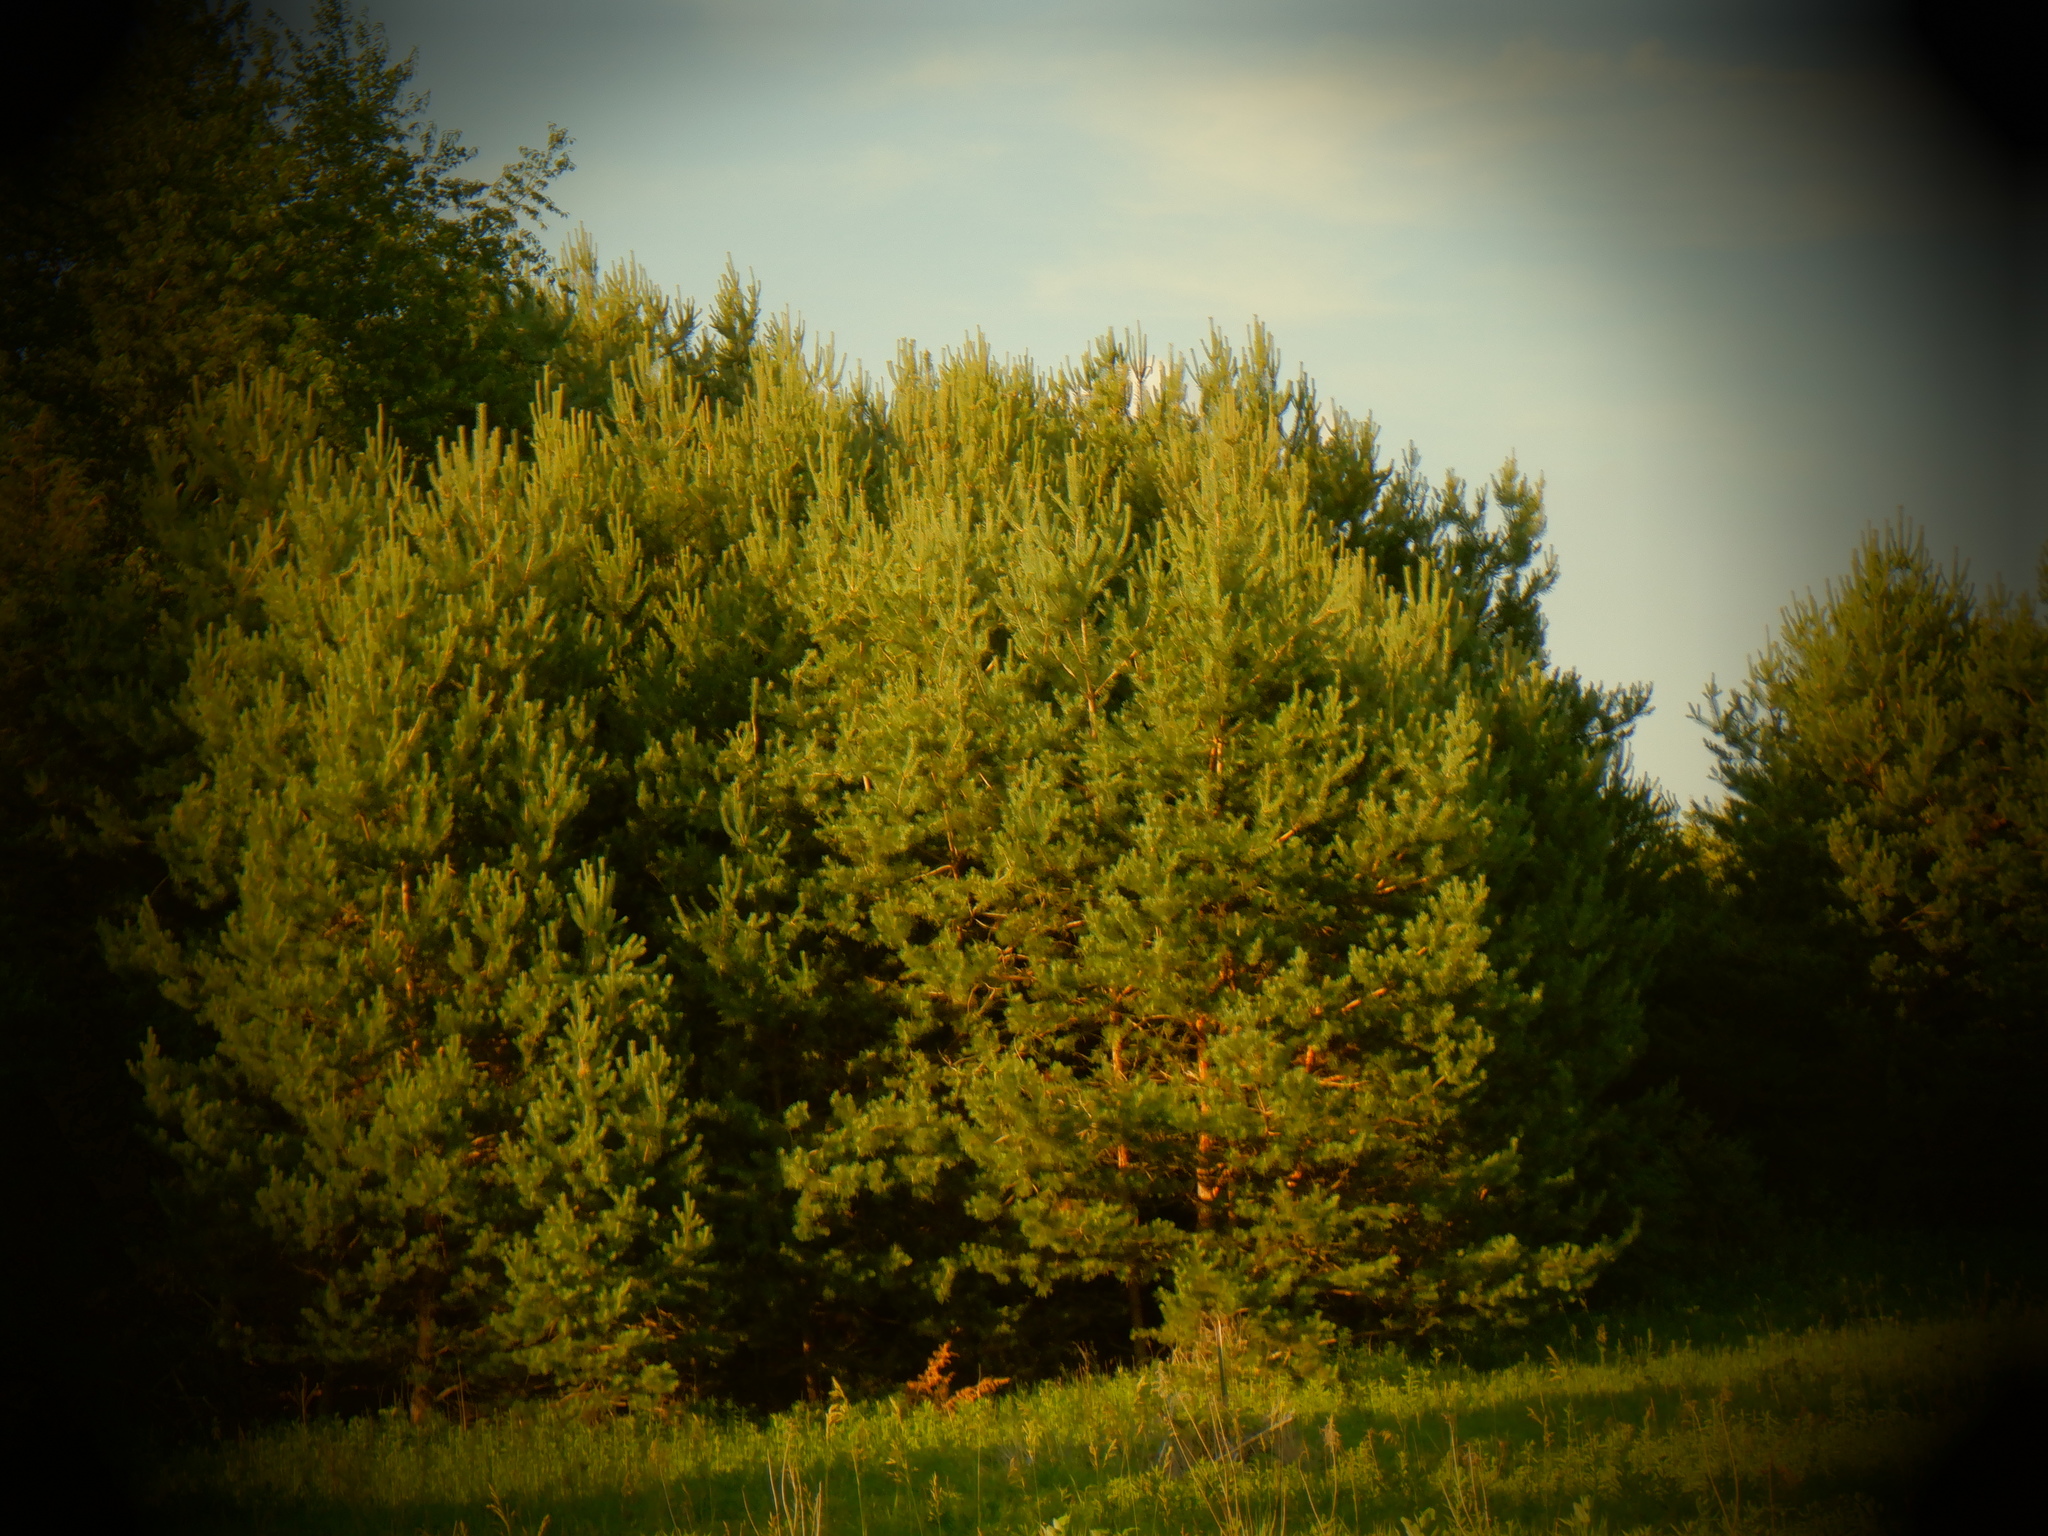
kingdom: Plantae
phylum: Tracheophyta
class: Pinopsida
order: Pinales
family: Pinaceae
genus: Pinus
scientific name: Pinus sylvestris
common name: Scots pine
